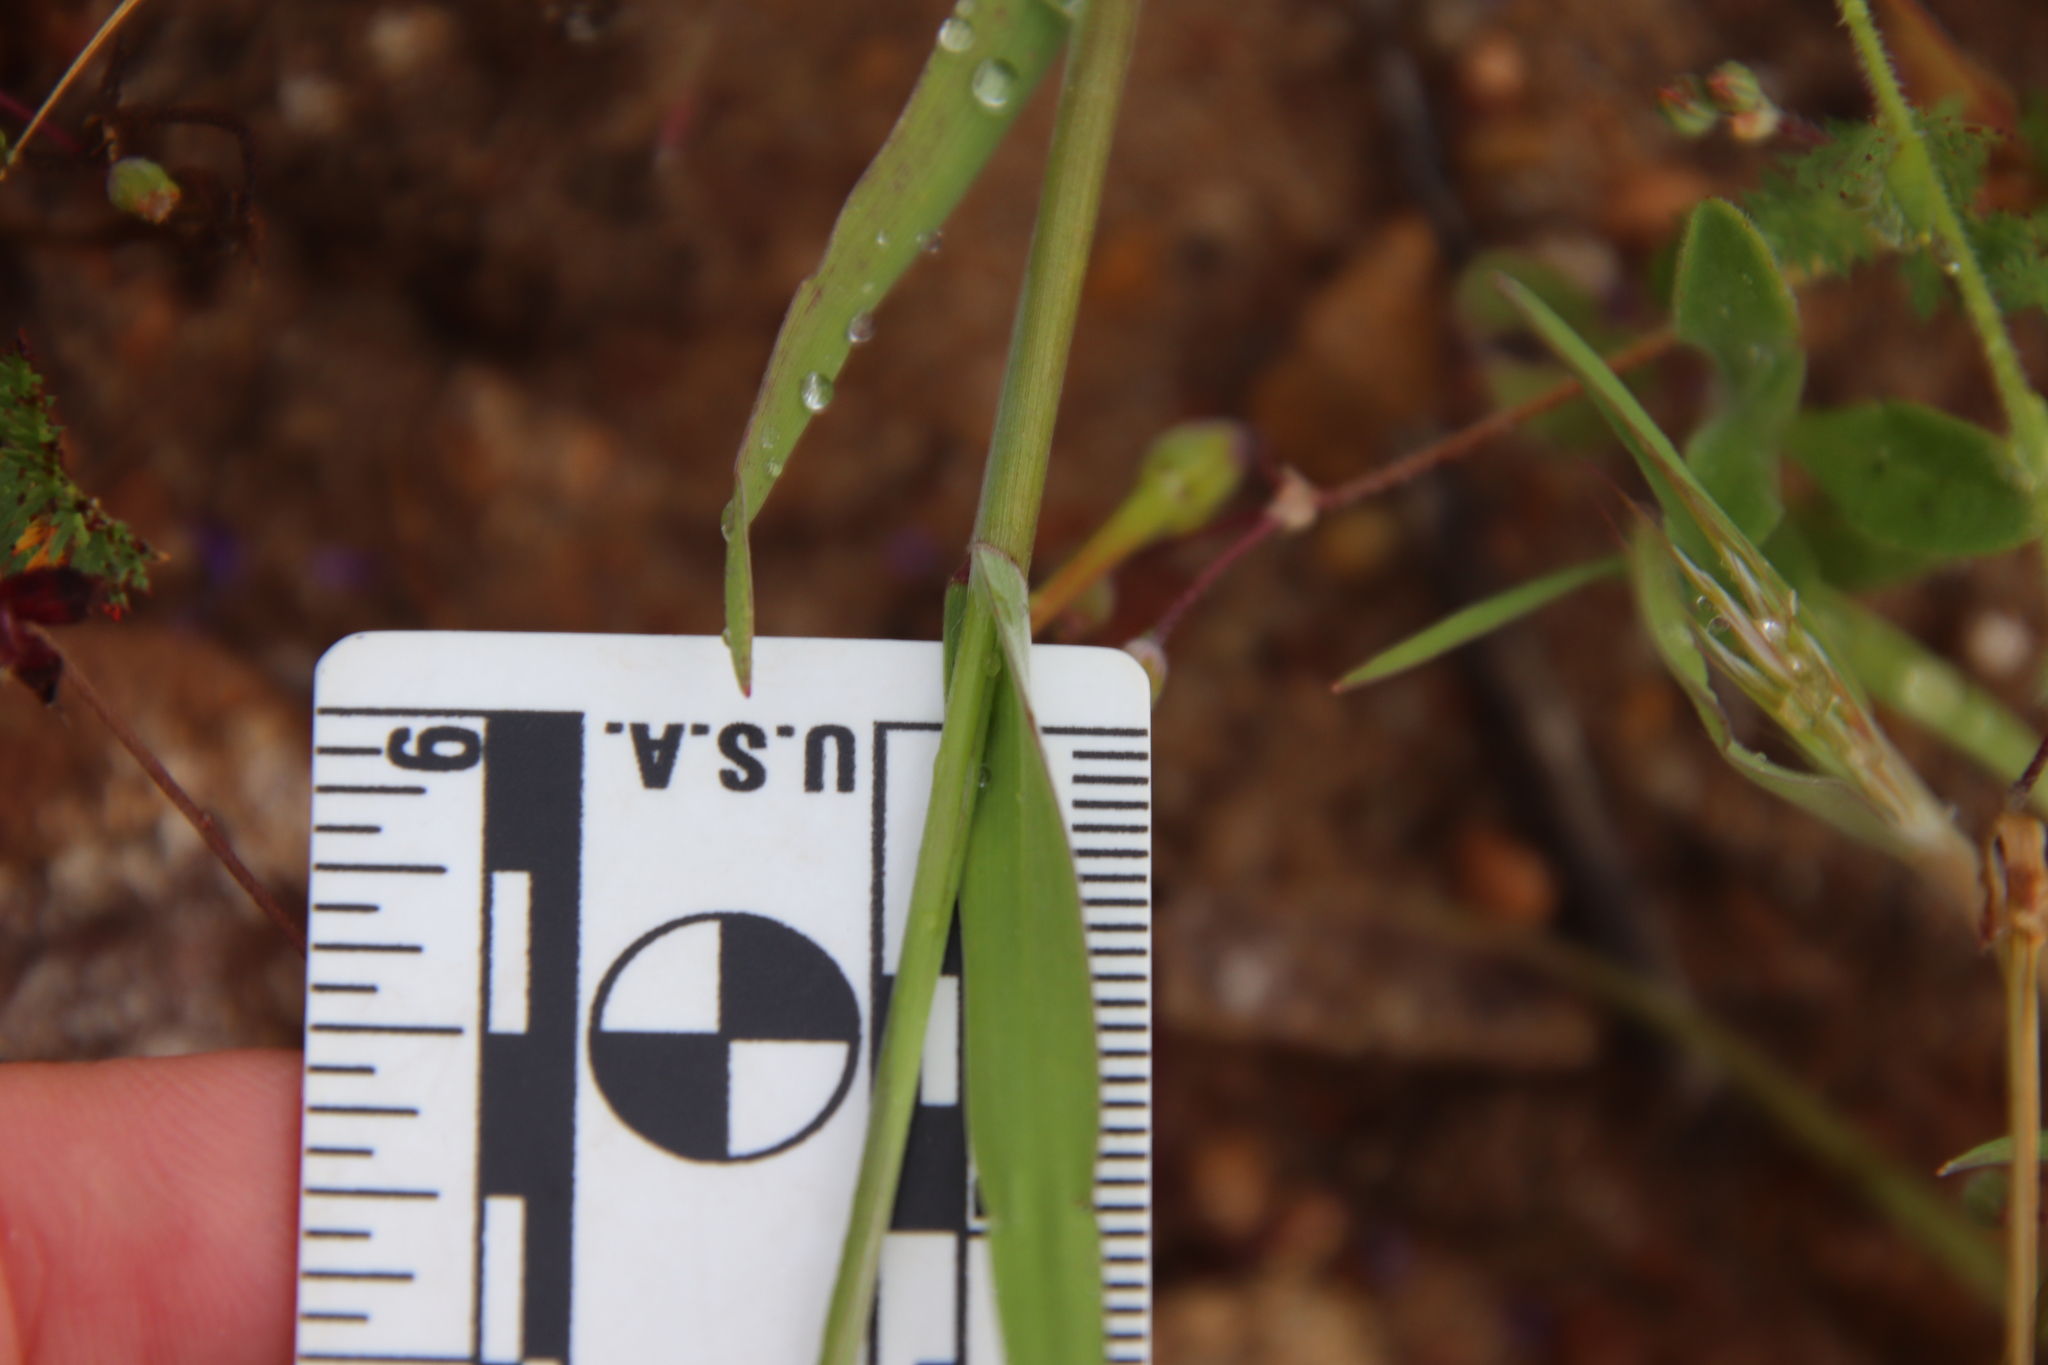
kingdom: Plantae
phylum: Tracheophyta
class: Liliopsida
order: Poales
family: Poaceae
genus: Bromus
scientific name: Bromus rubens
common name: Red brome
